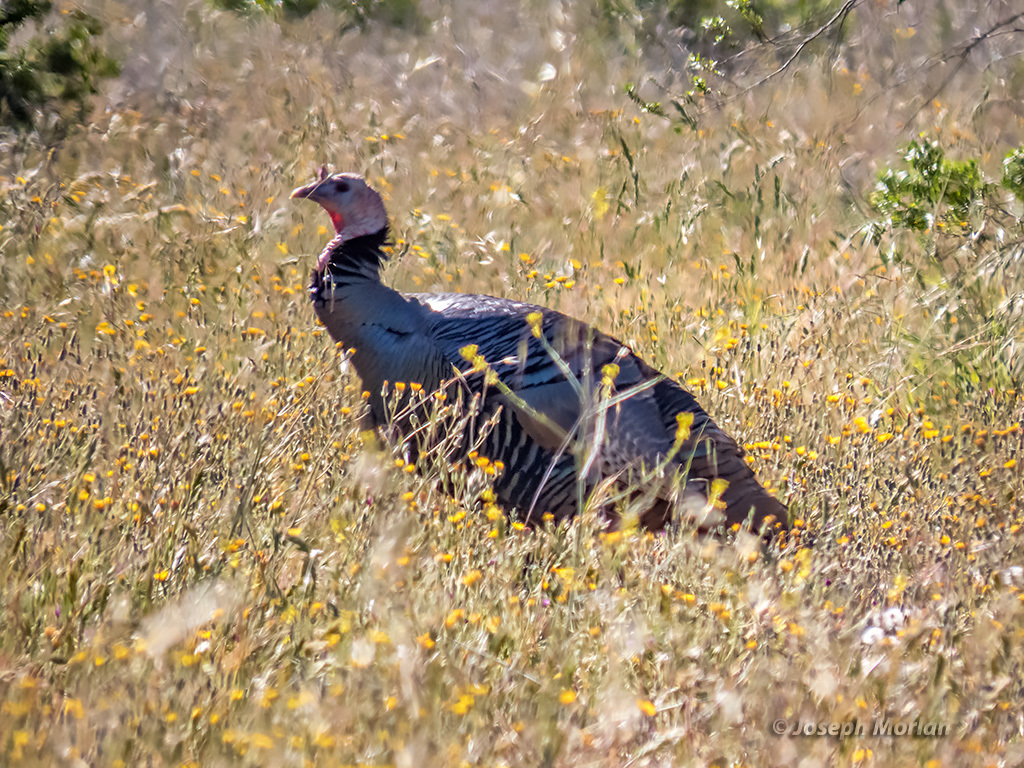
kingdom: Animalia
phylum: Chordata
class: Aves
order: Galliformes
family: Phasianidae
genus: Meleagris
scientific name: Meleagris gallopavo
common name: Wild turkey
